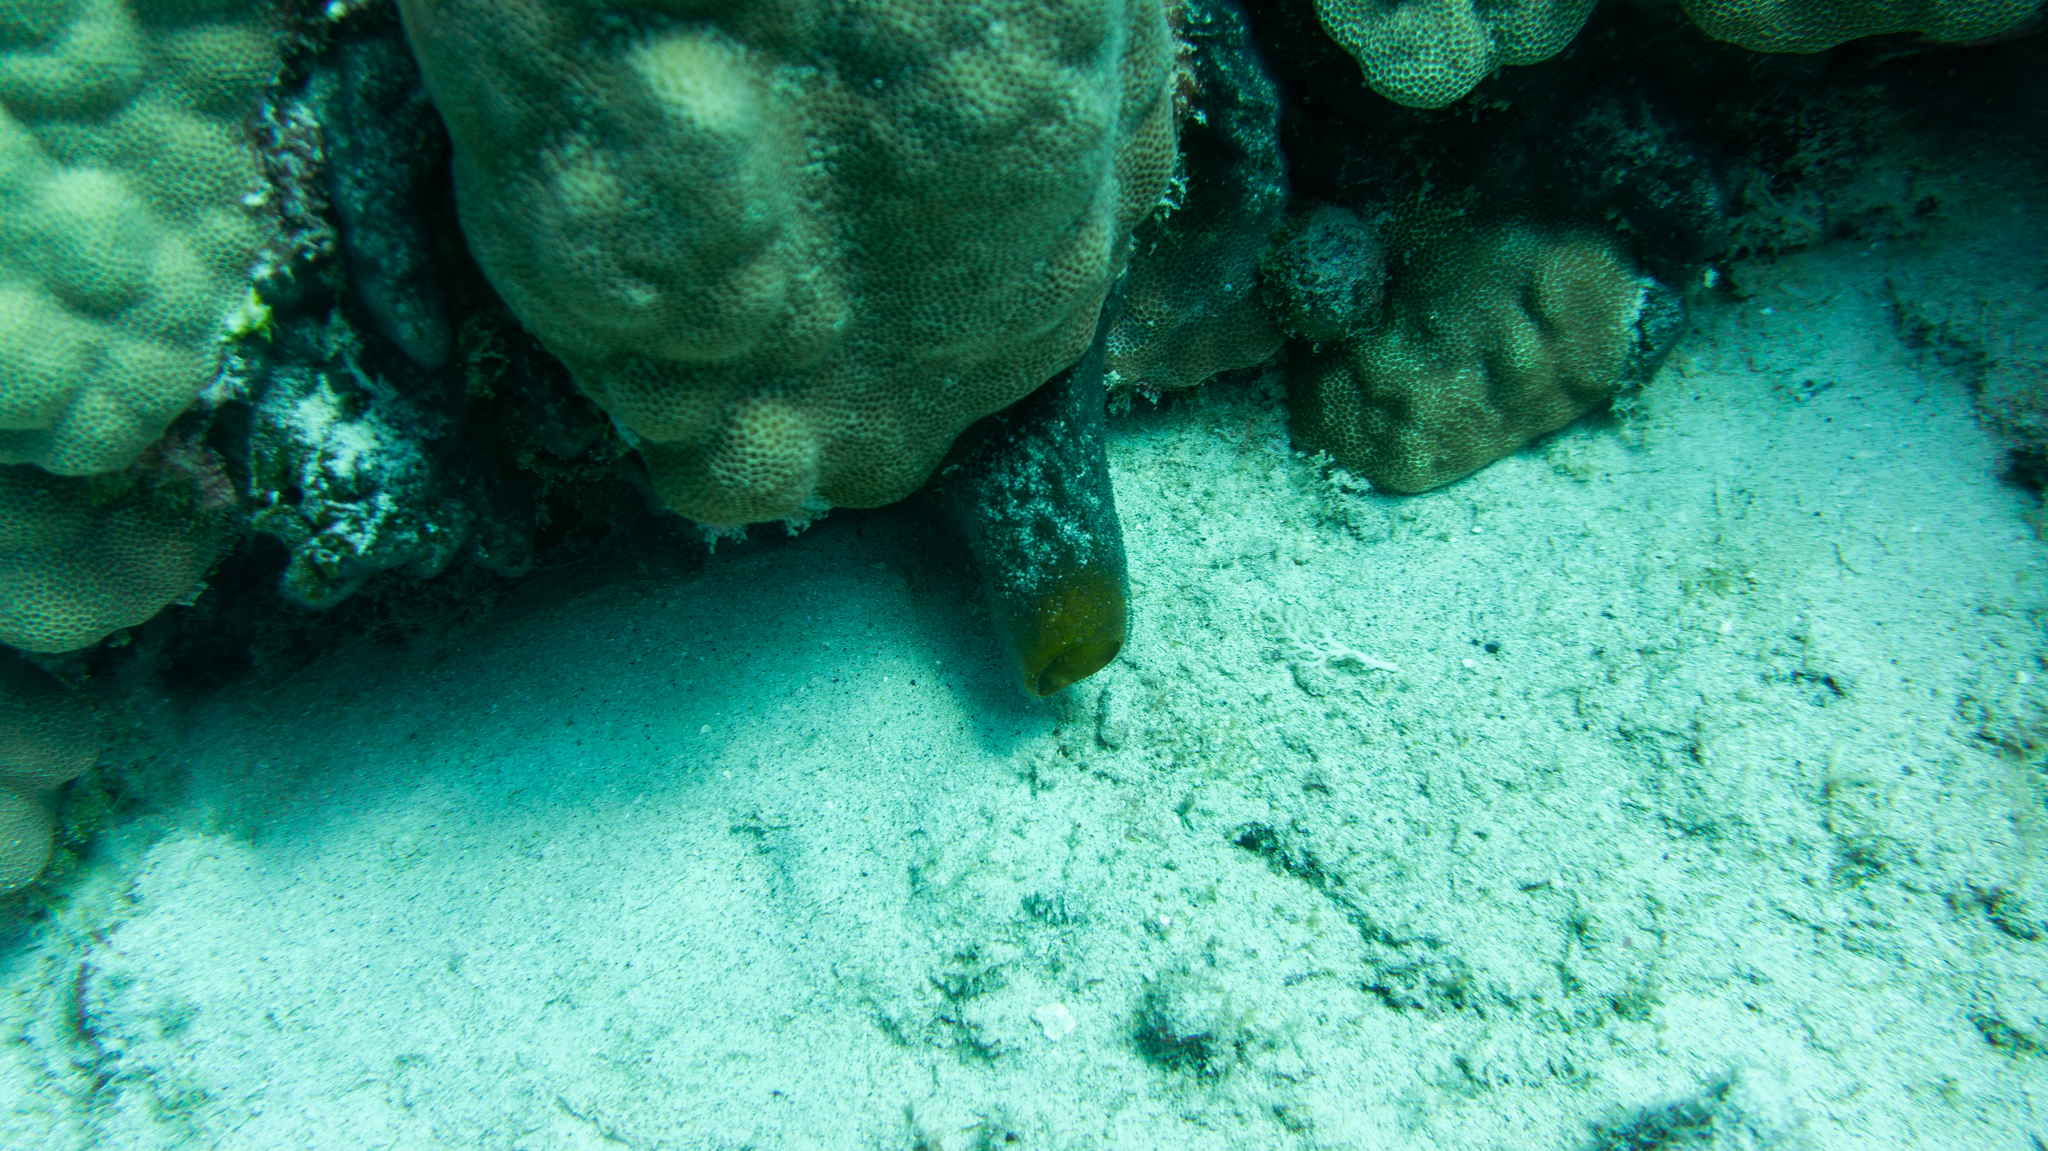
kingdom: Animalia
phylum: Porifera
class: Demospongiae
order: Clionaida
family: Clionaidae
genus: Spheciospongia
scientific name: Spheciospongia vagabunda
